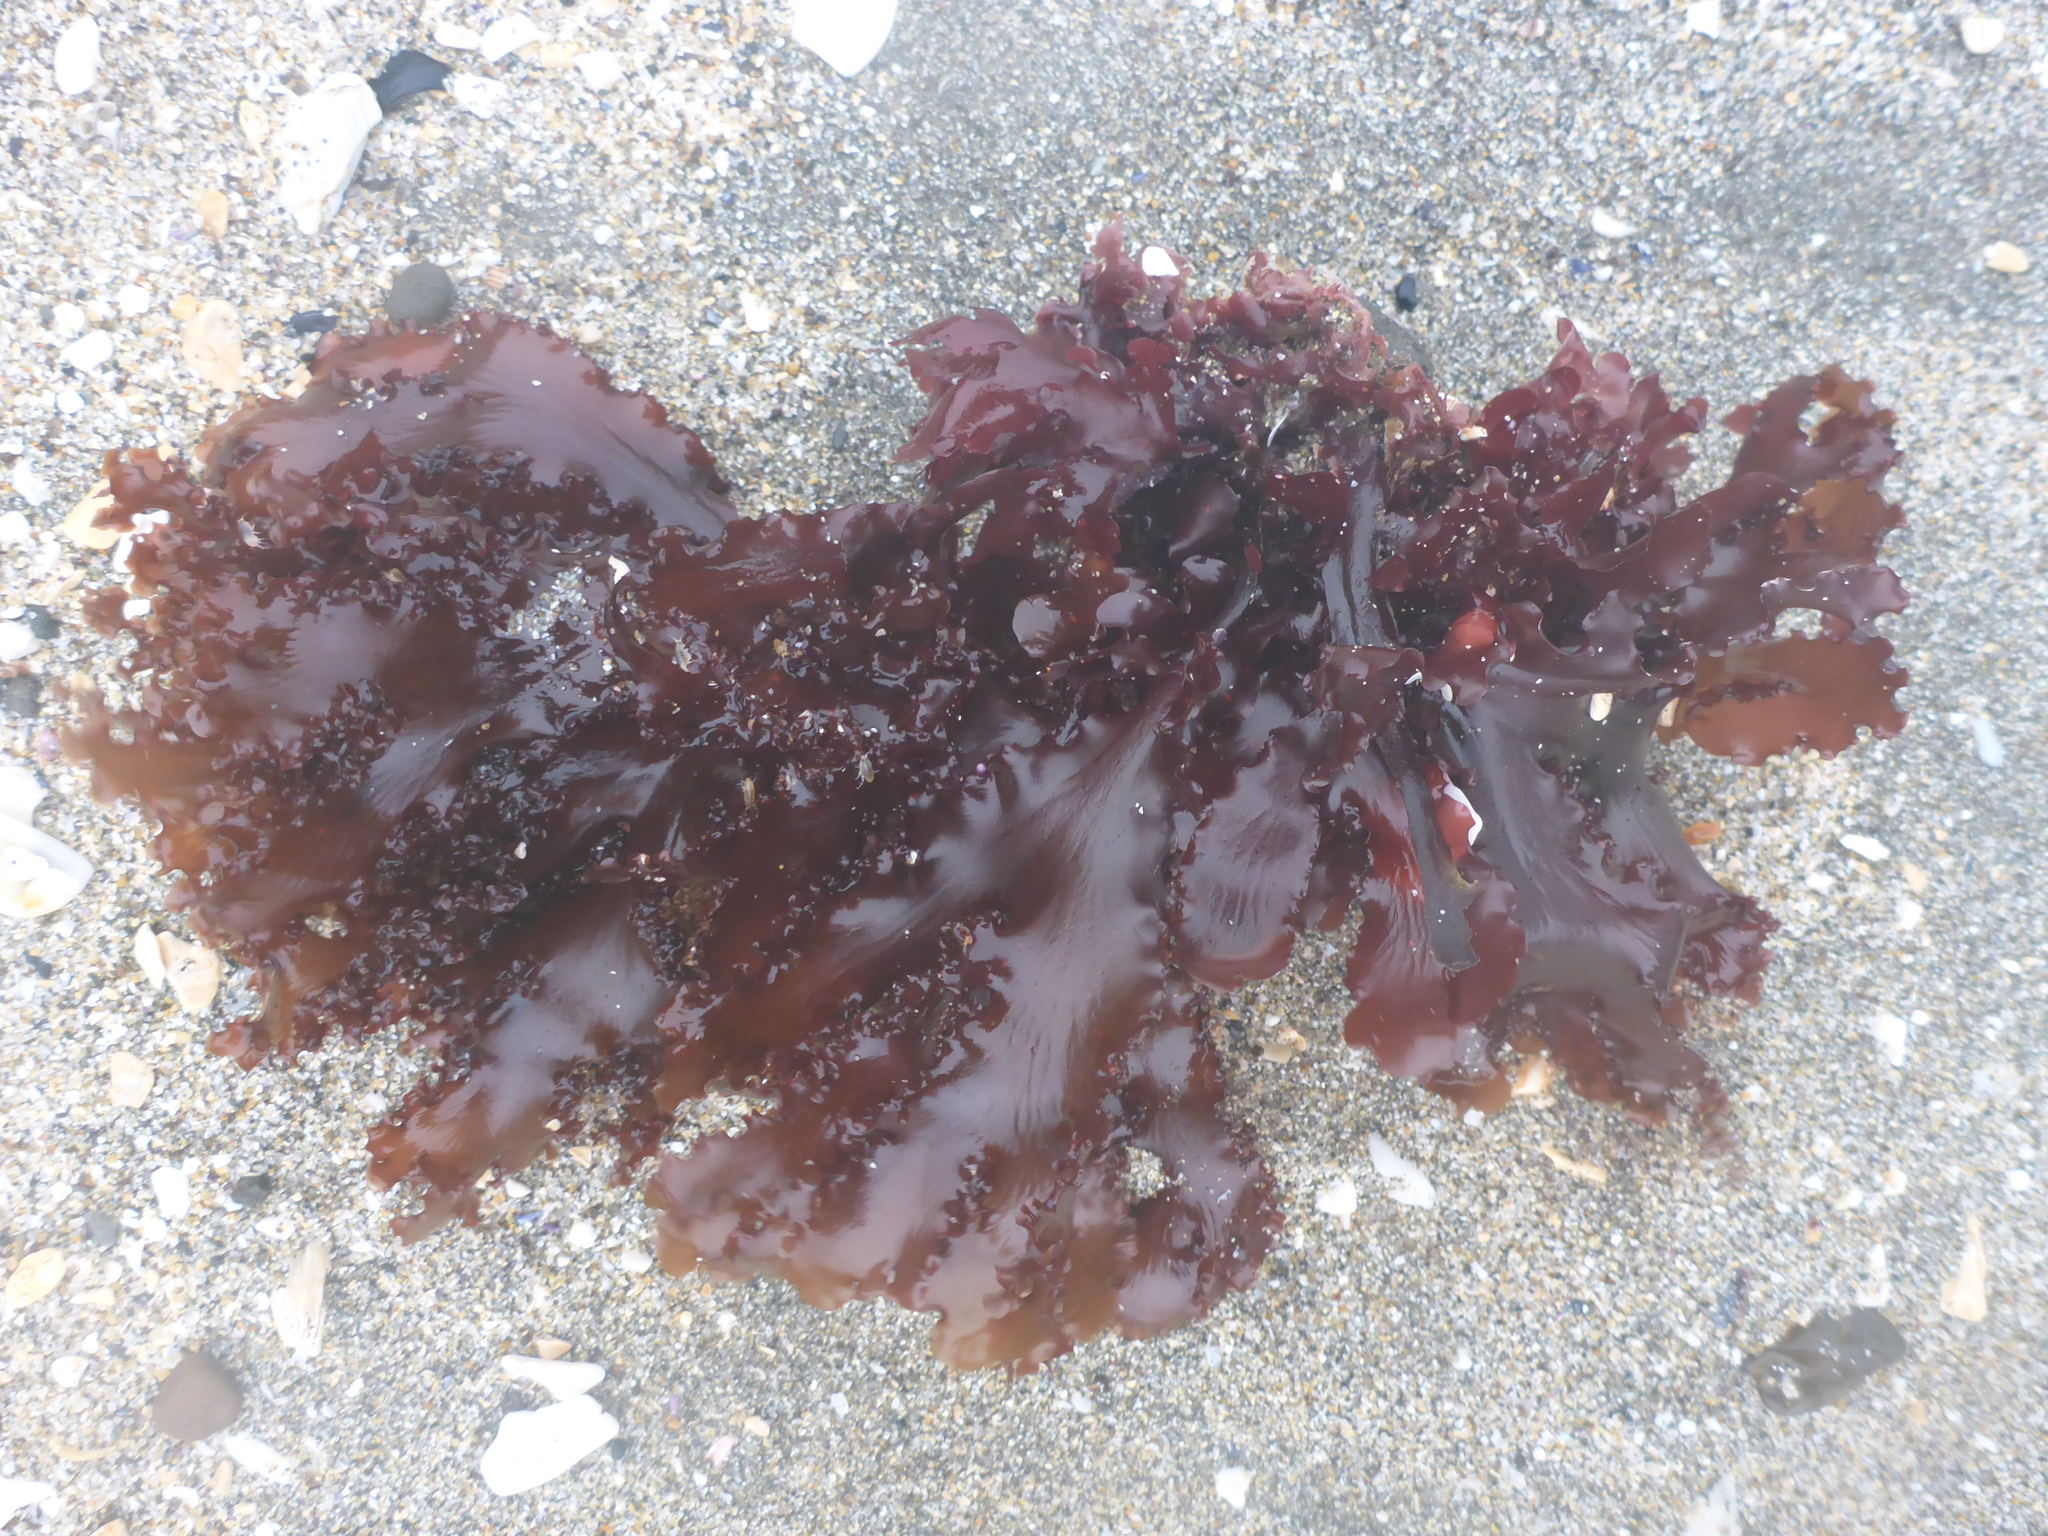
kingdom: Plantae
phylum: Rhodophyta
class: Florideophyceae
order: Ceramiales
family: Delesseriaceae
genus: Cryptopleura
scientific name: Cryptopleura ruprechtiana
